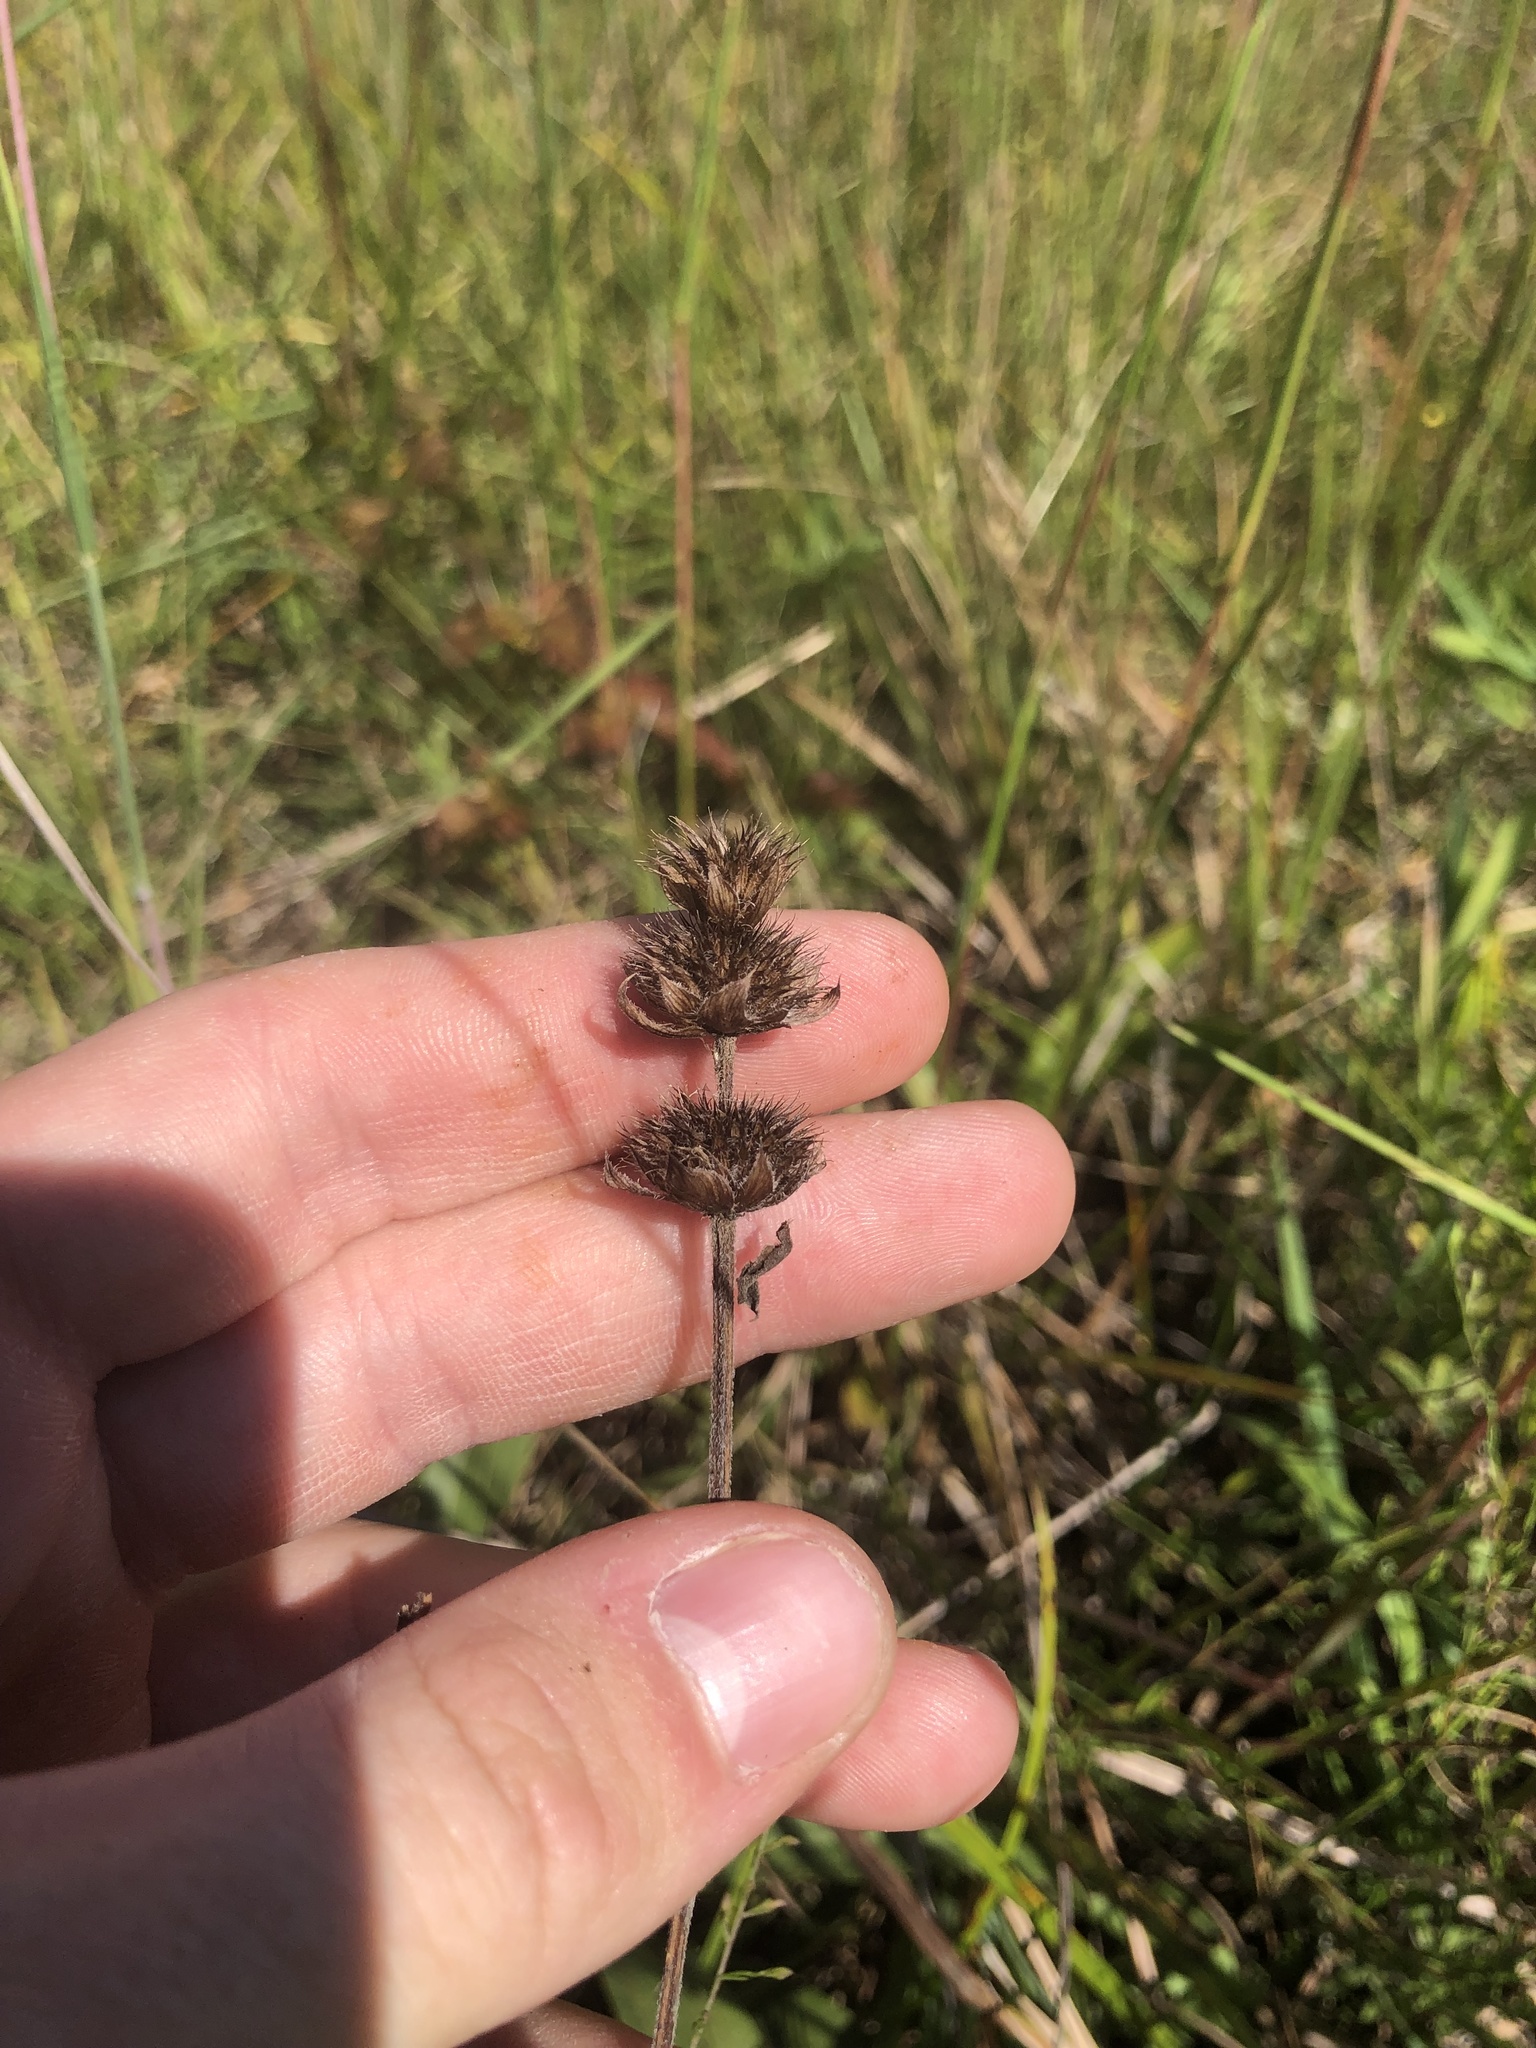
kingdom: Plantae
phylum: Tracheophyta
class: Magnoliopsida
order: Lamiales
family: Lamiaceae
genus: Blephilia
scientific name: Blephilia ciliata
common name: Downy blephilia
